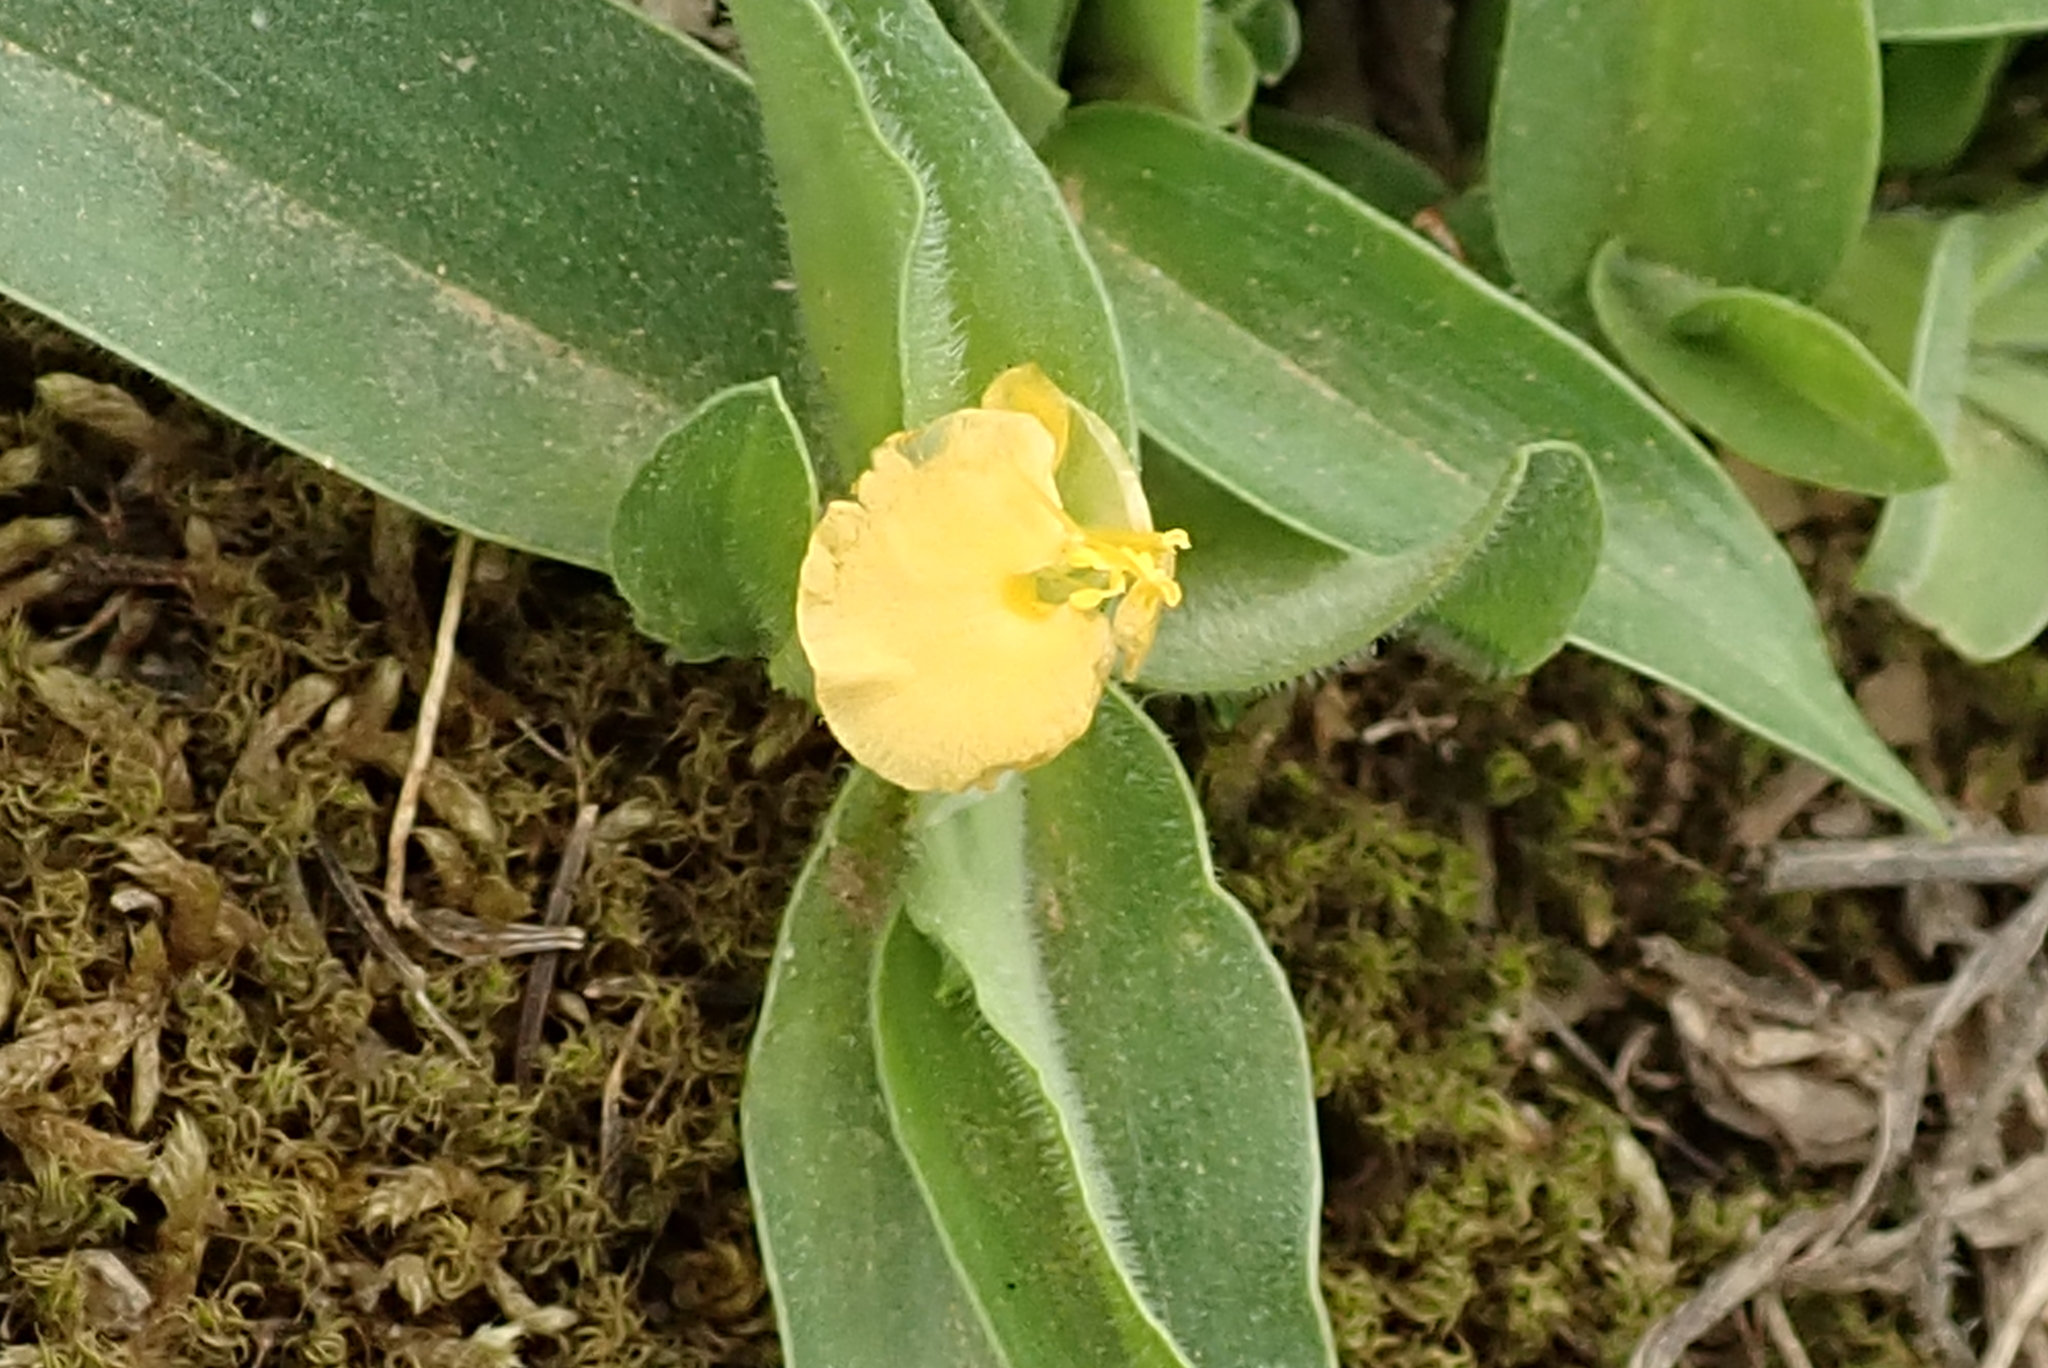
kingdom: Plantae
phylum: Tracheophyta
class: Liliopsida
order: Commelinales
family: Commelinaceae
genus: Commelina
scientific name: Commelina africana
